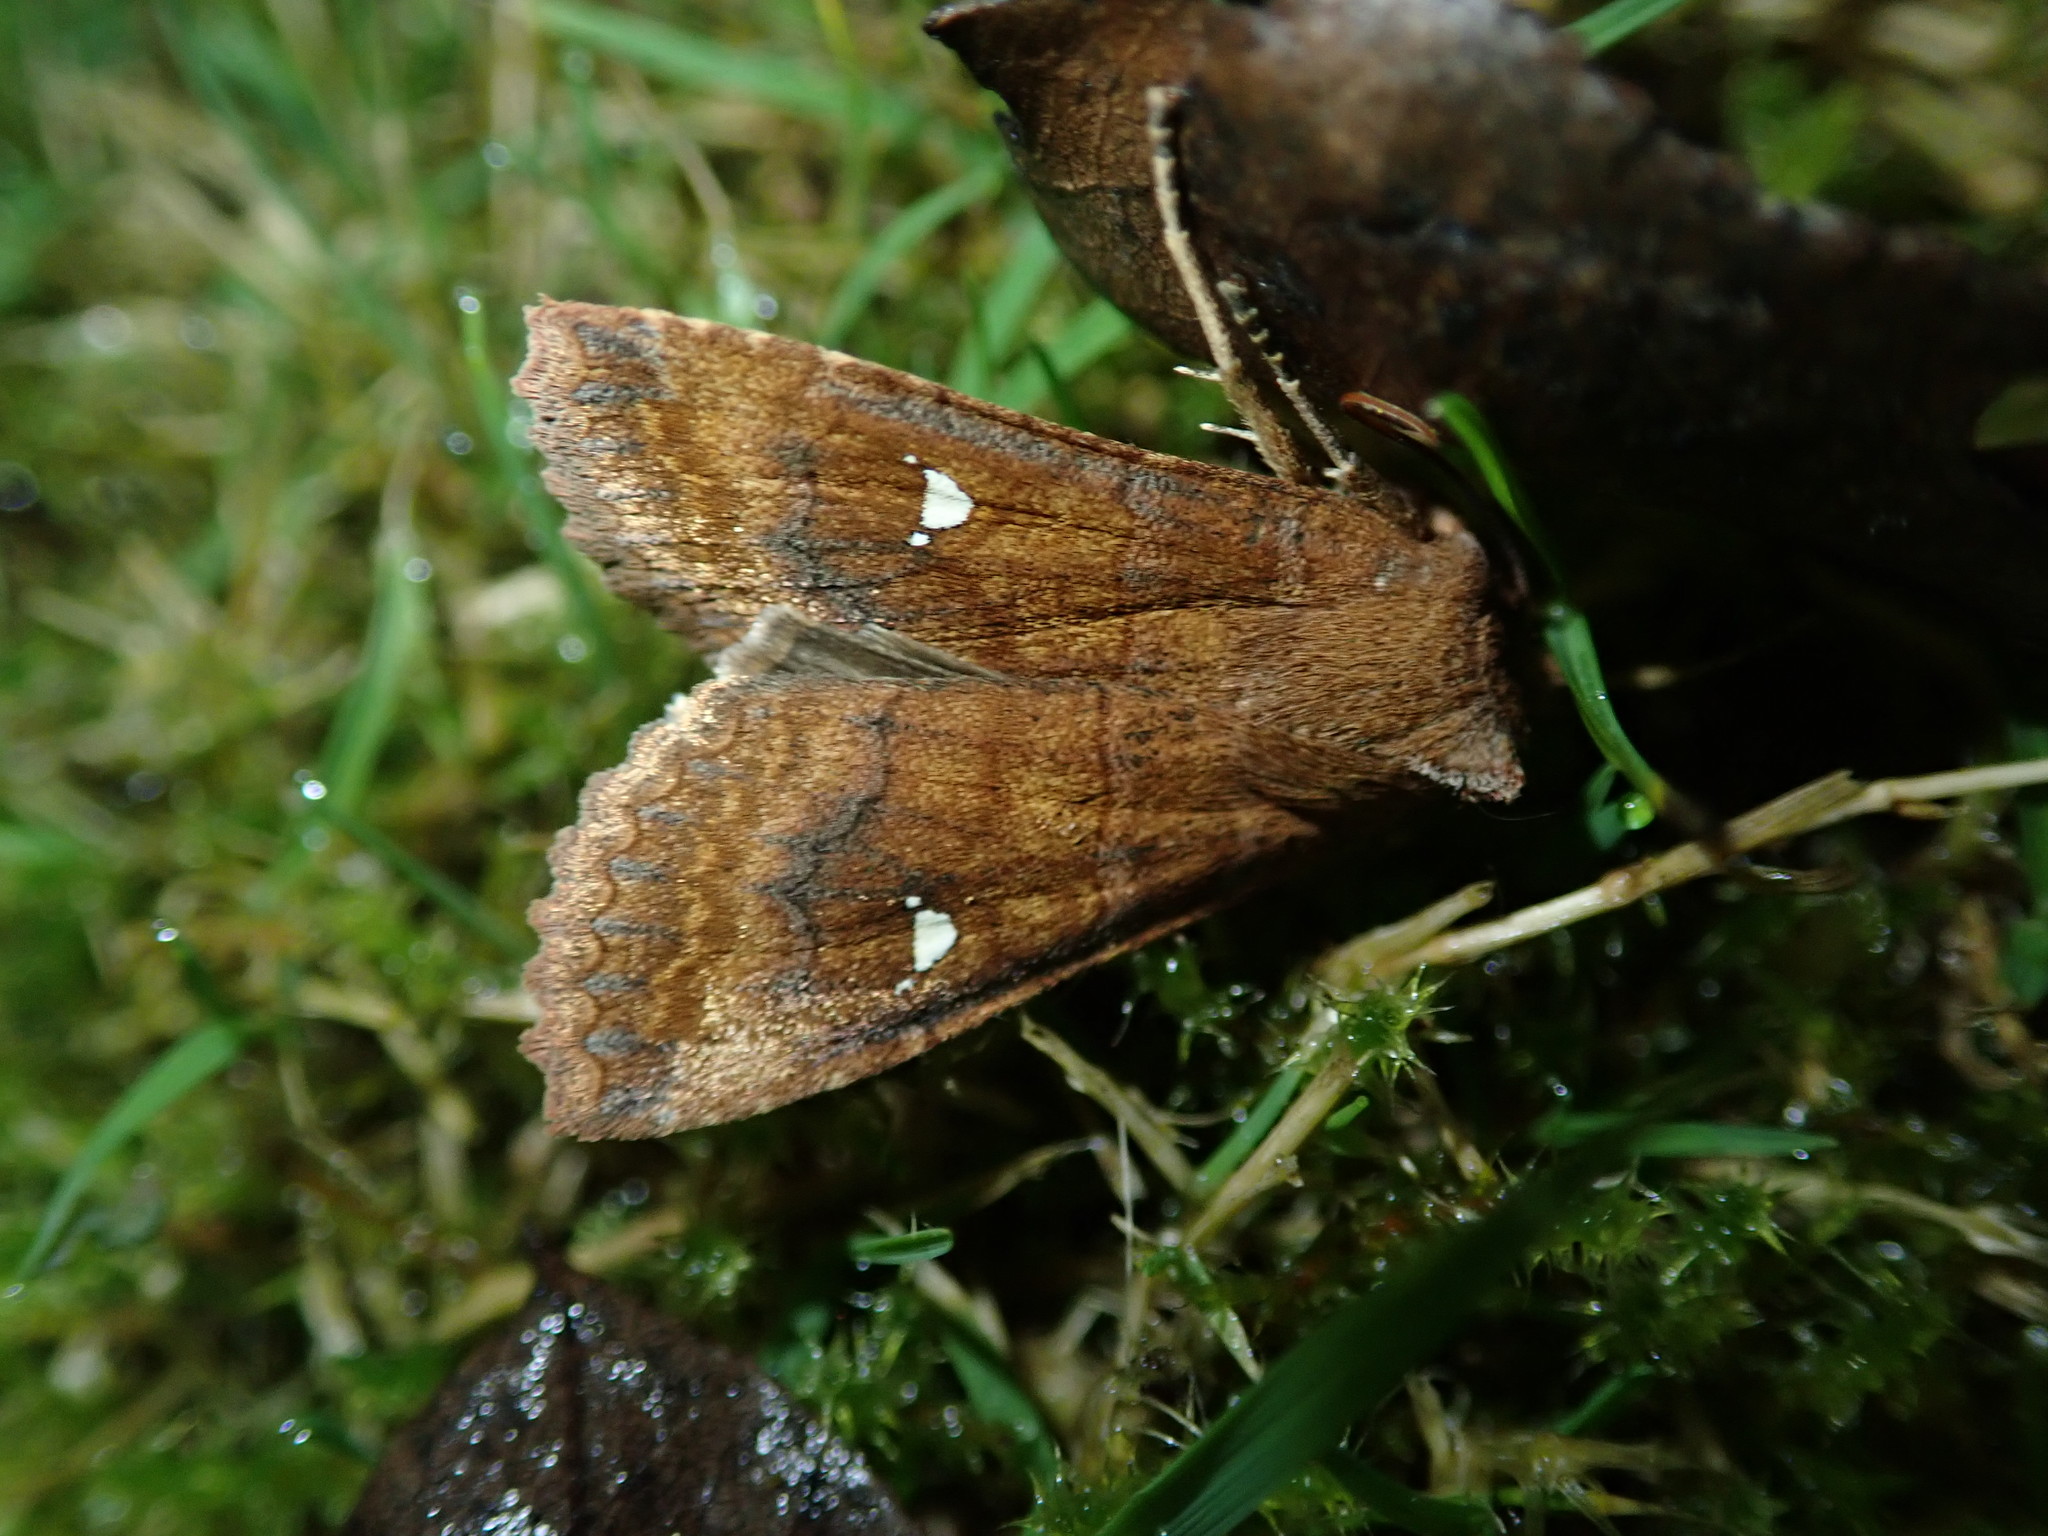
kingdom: Animalia
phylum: Arthropoda
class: Insecta
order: Lepidoptera
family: Noctuidae
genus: Eupsilia
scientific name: Eupsilia transversa
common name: Satellite
